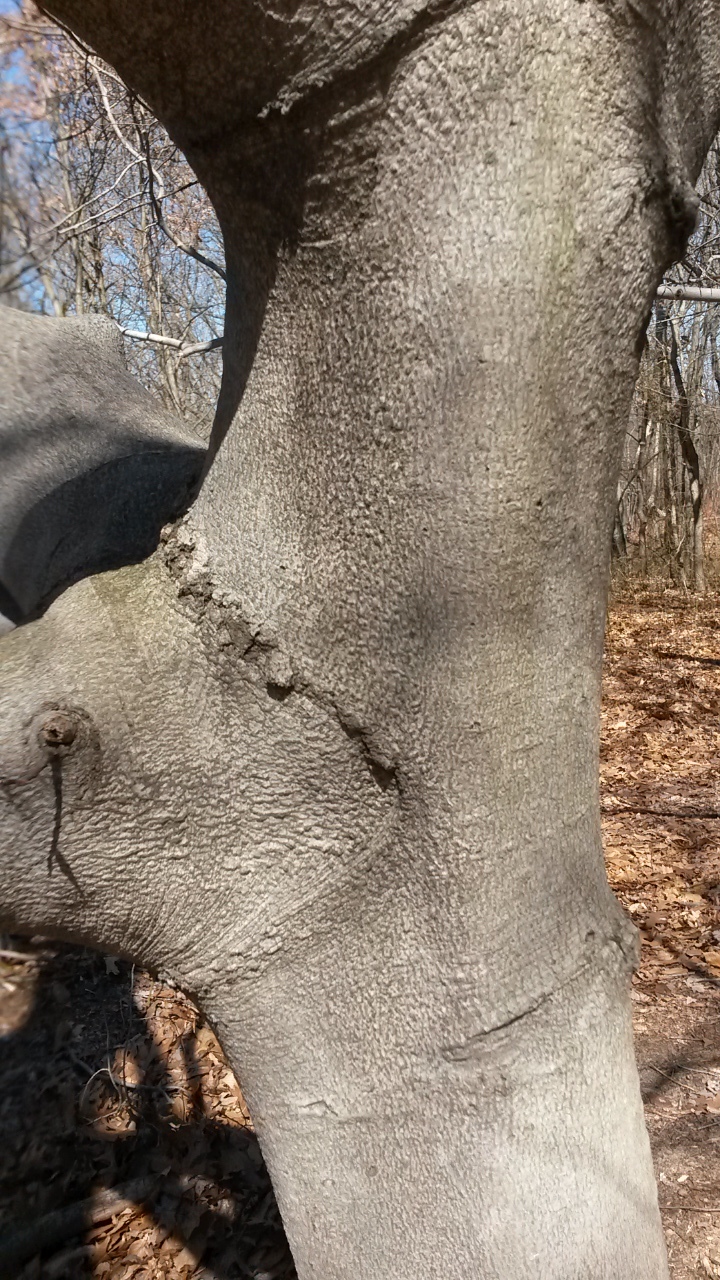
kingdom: Plantae
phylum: Tracheophyta
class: Magnoliopsida
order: Fagales
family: Fagaceae
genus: Fagus
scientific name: Fagus grandifolia
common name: American beech
